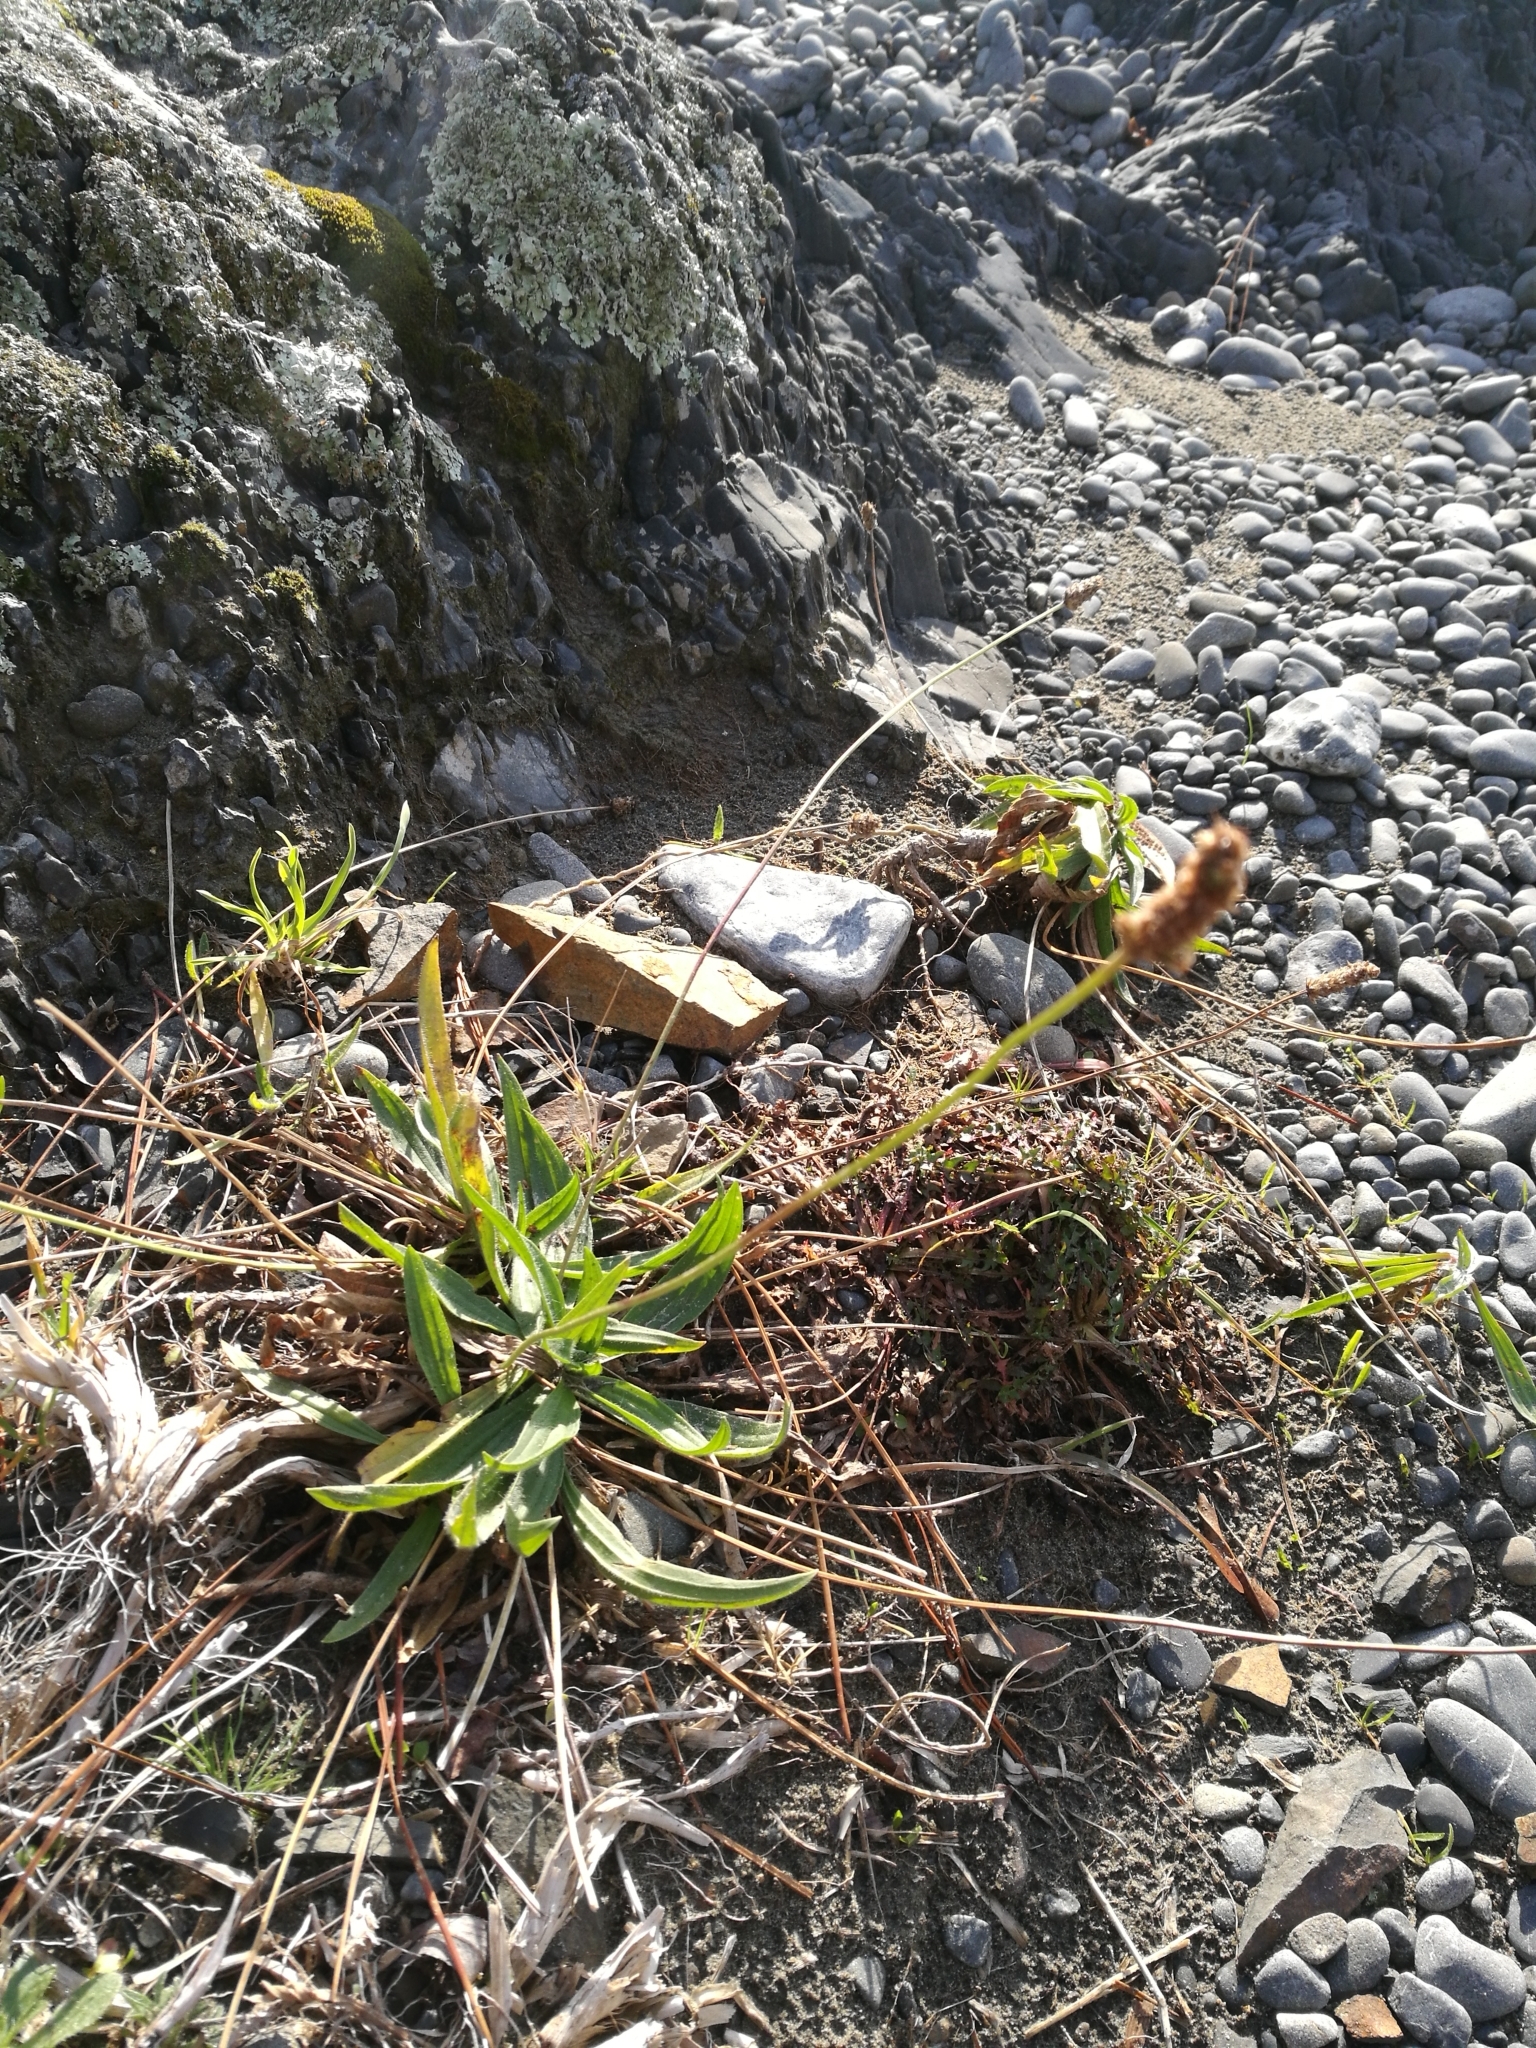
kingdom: Plantae
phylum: Tracheophyta
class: Magnoliopsida
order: Lamiales
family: Plantaginaceae
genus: Plantago
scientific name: Plantago lanceolata
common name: Ribwort plantain
